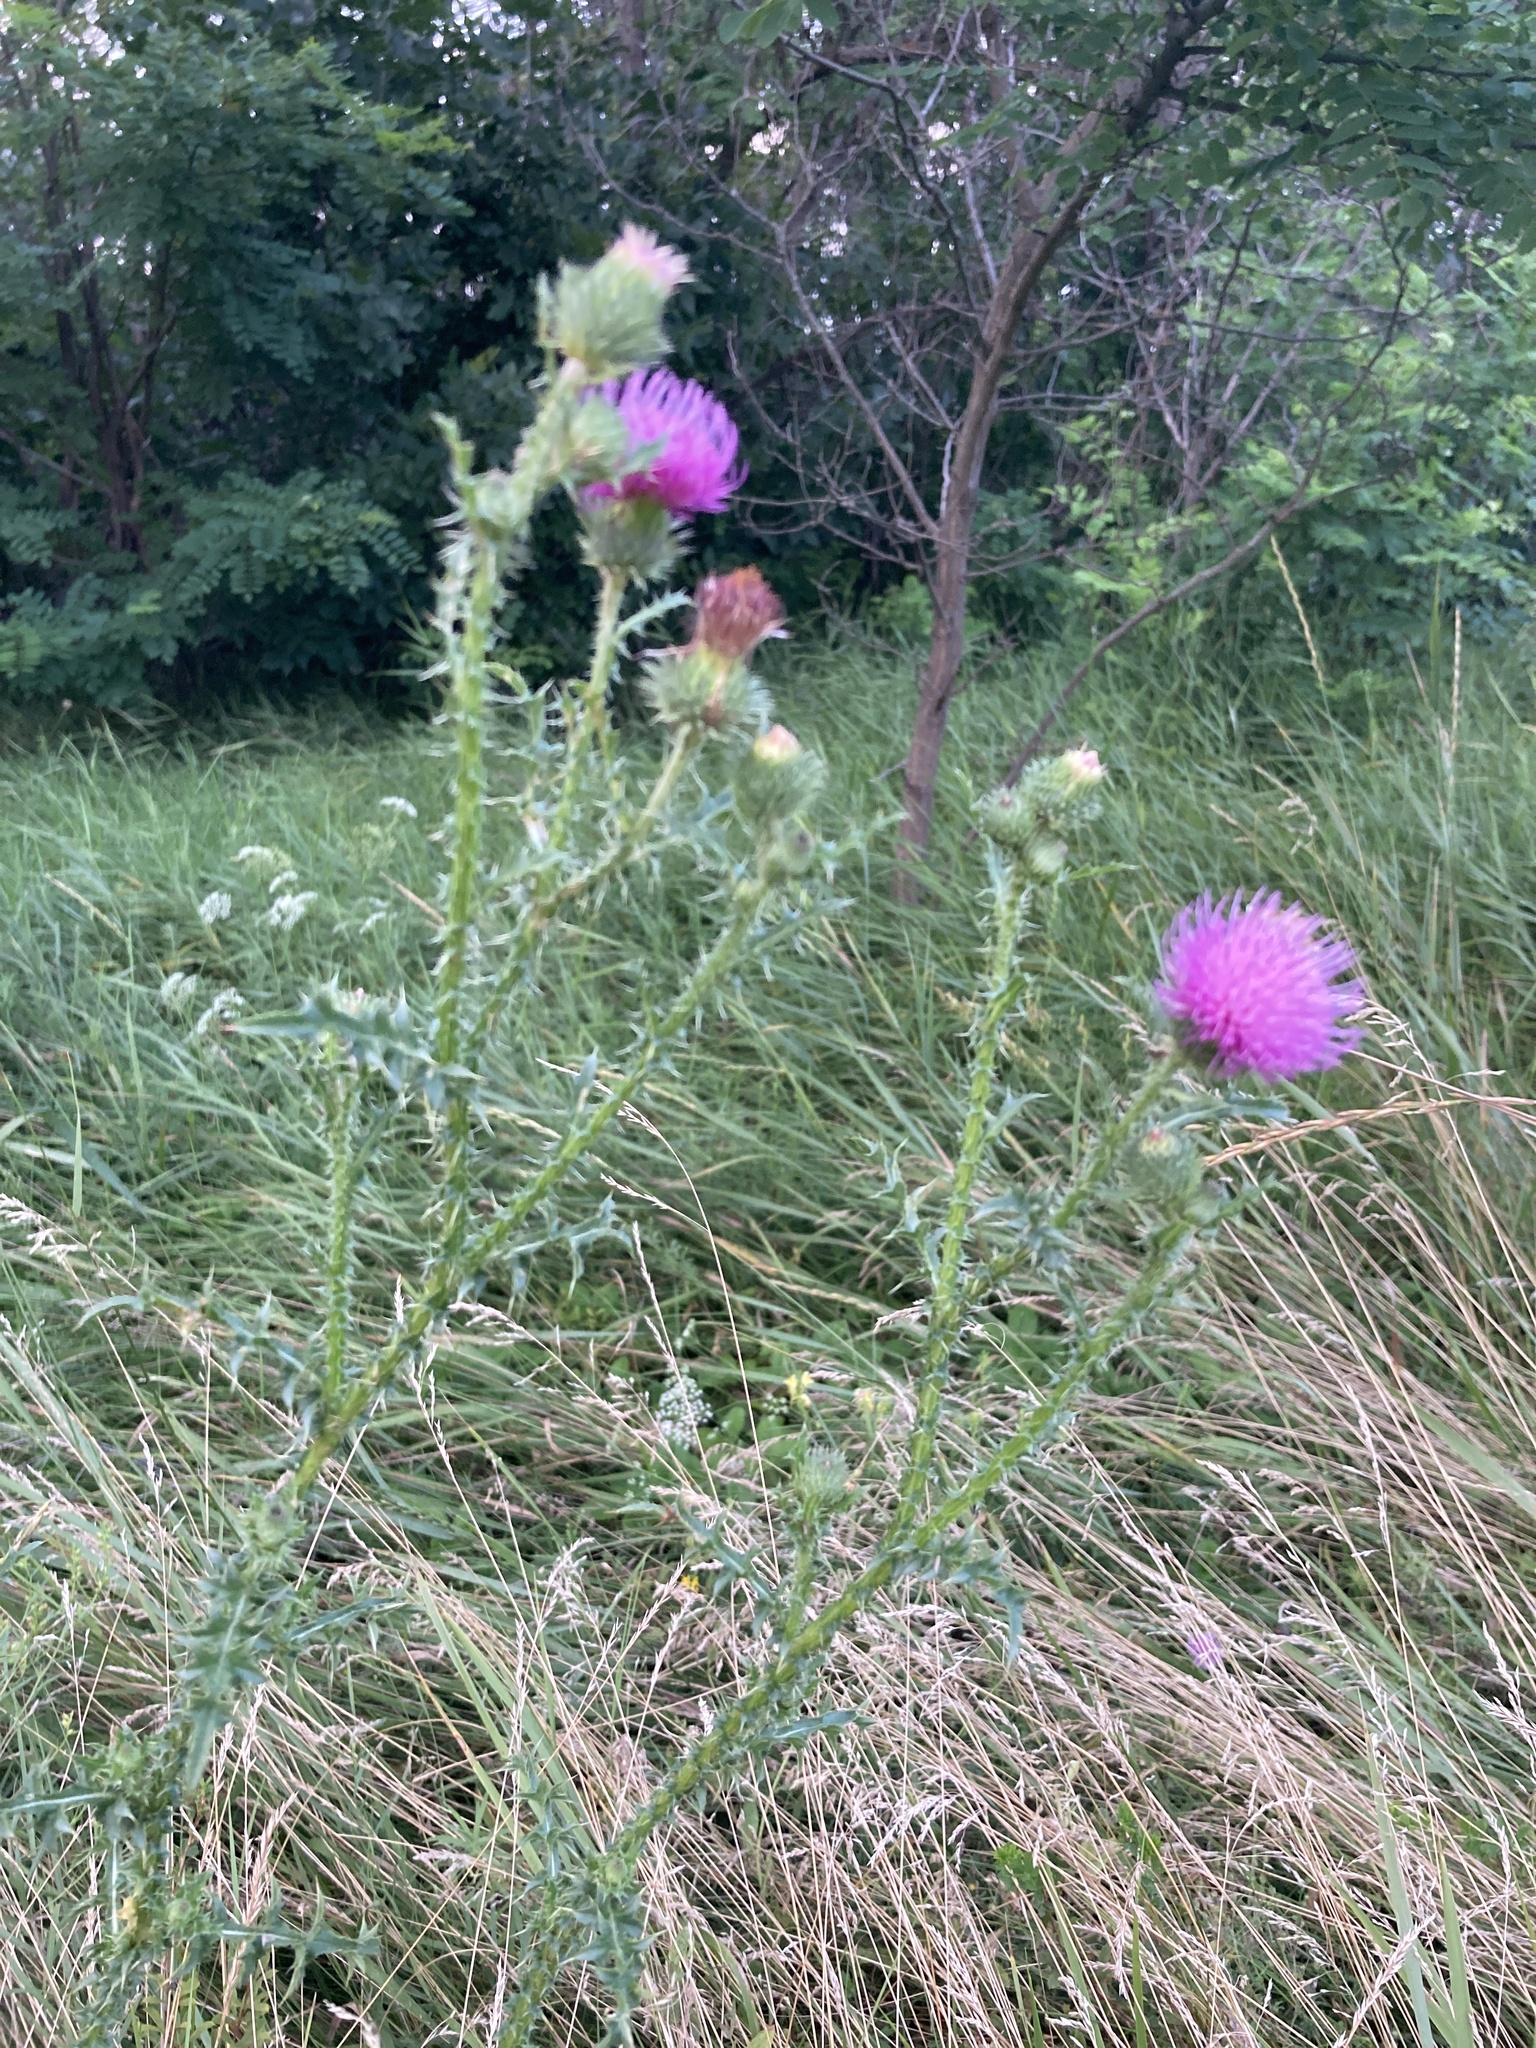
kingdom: Plantae
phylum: Tracheophyta
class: Magnoliopsida
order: Asterales
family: Asteraceae
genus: Carduus
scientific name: Carduus acanthoides
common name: Plumeless thistle
